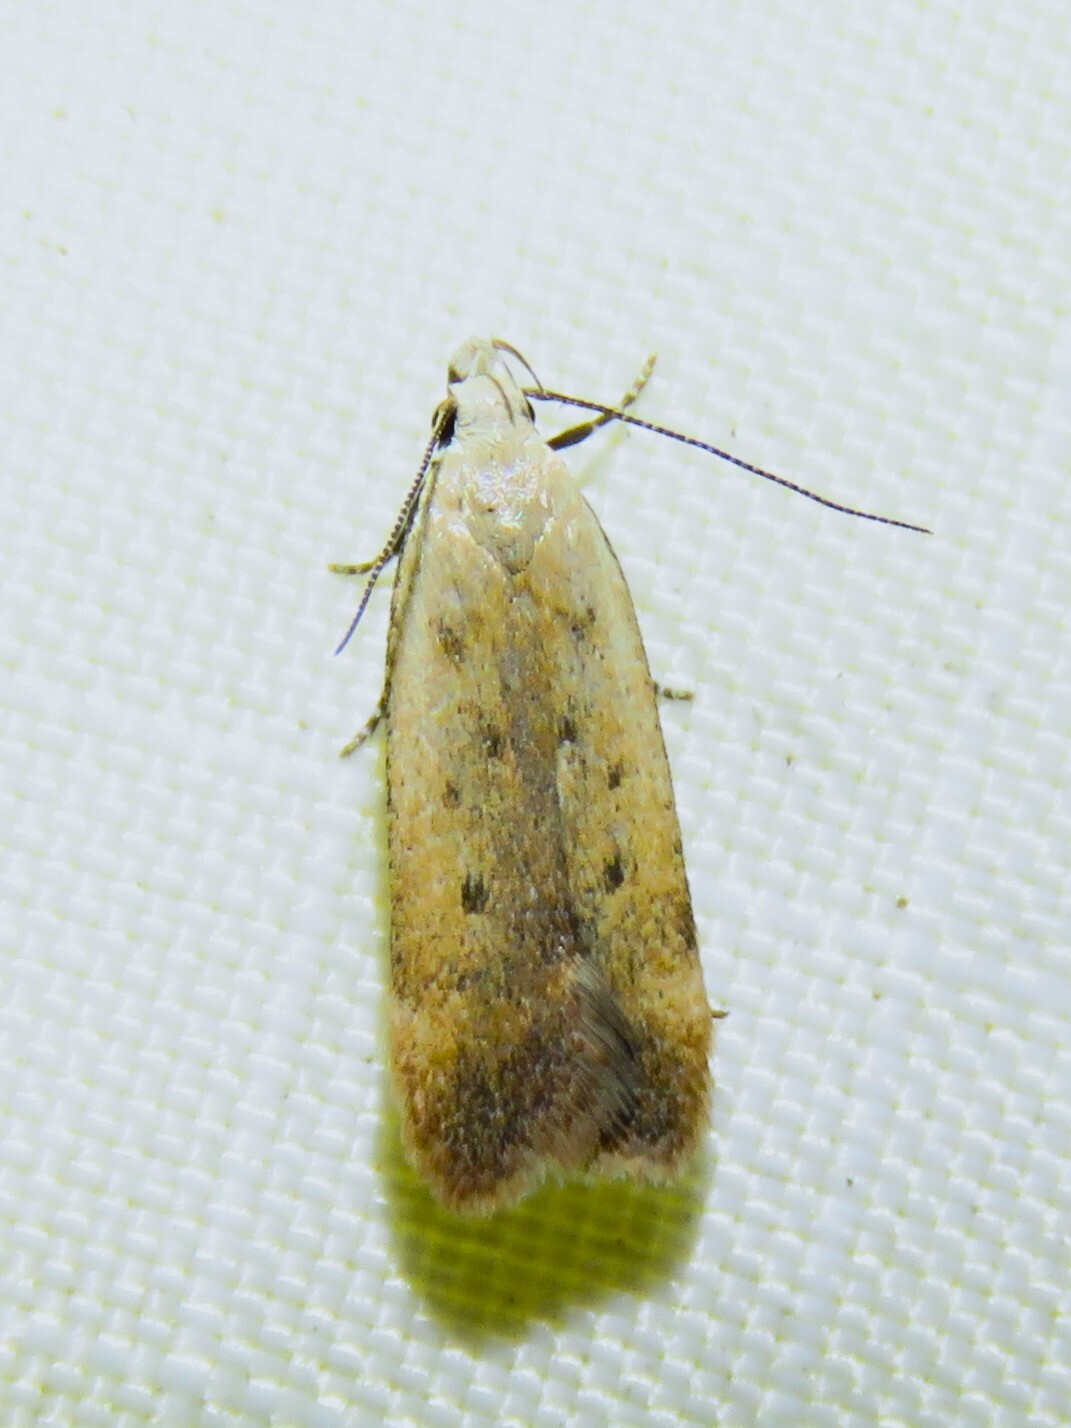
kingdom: Animalia
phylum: Arthropoda
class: Insecta
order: Lepidoptera
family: Gelechiidae
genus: Anacampsis
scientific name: Anacampsis fullonella
